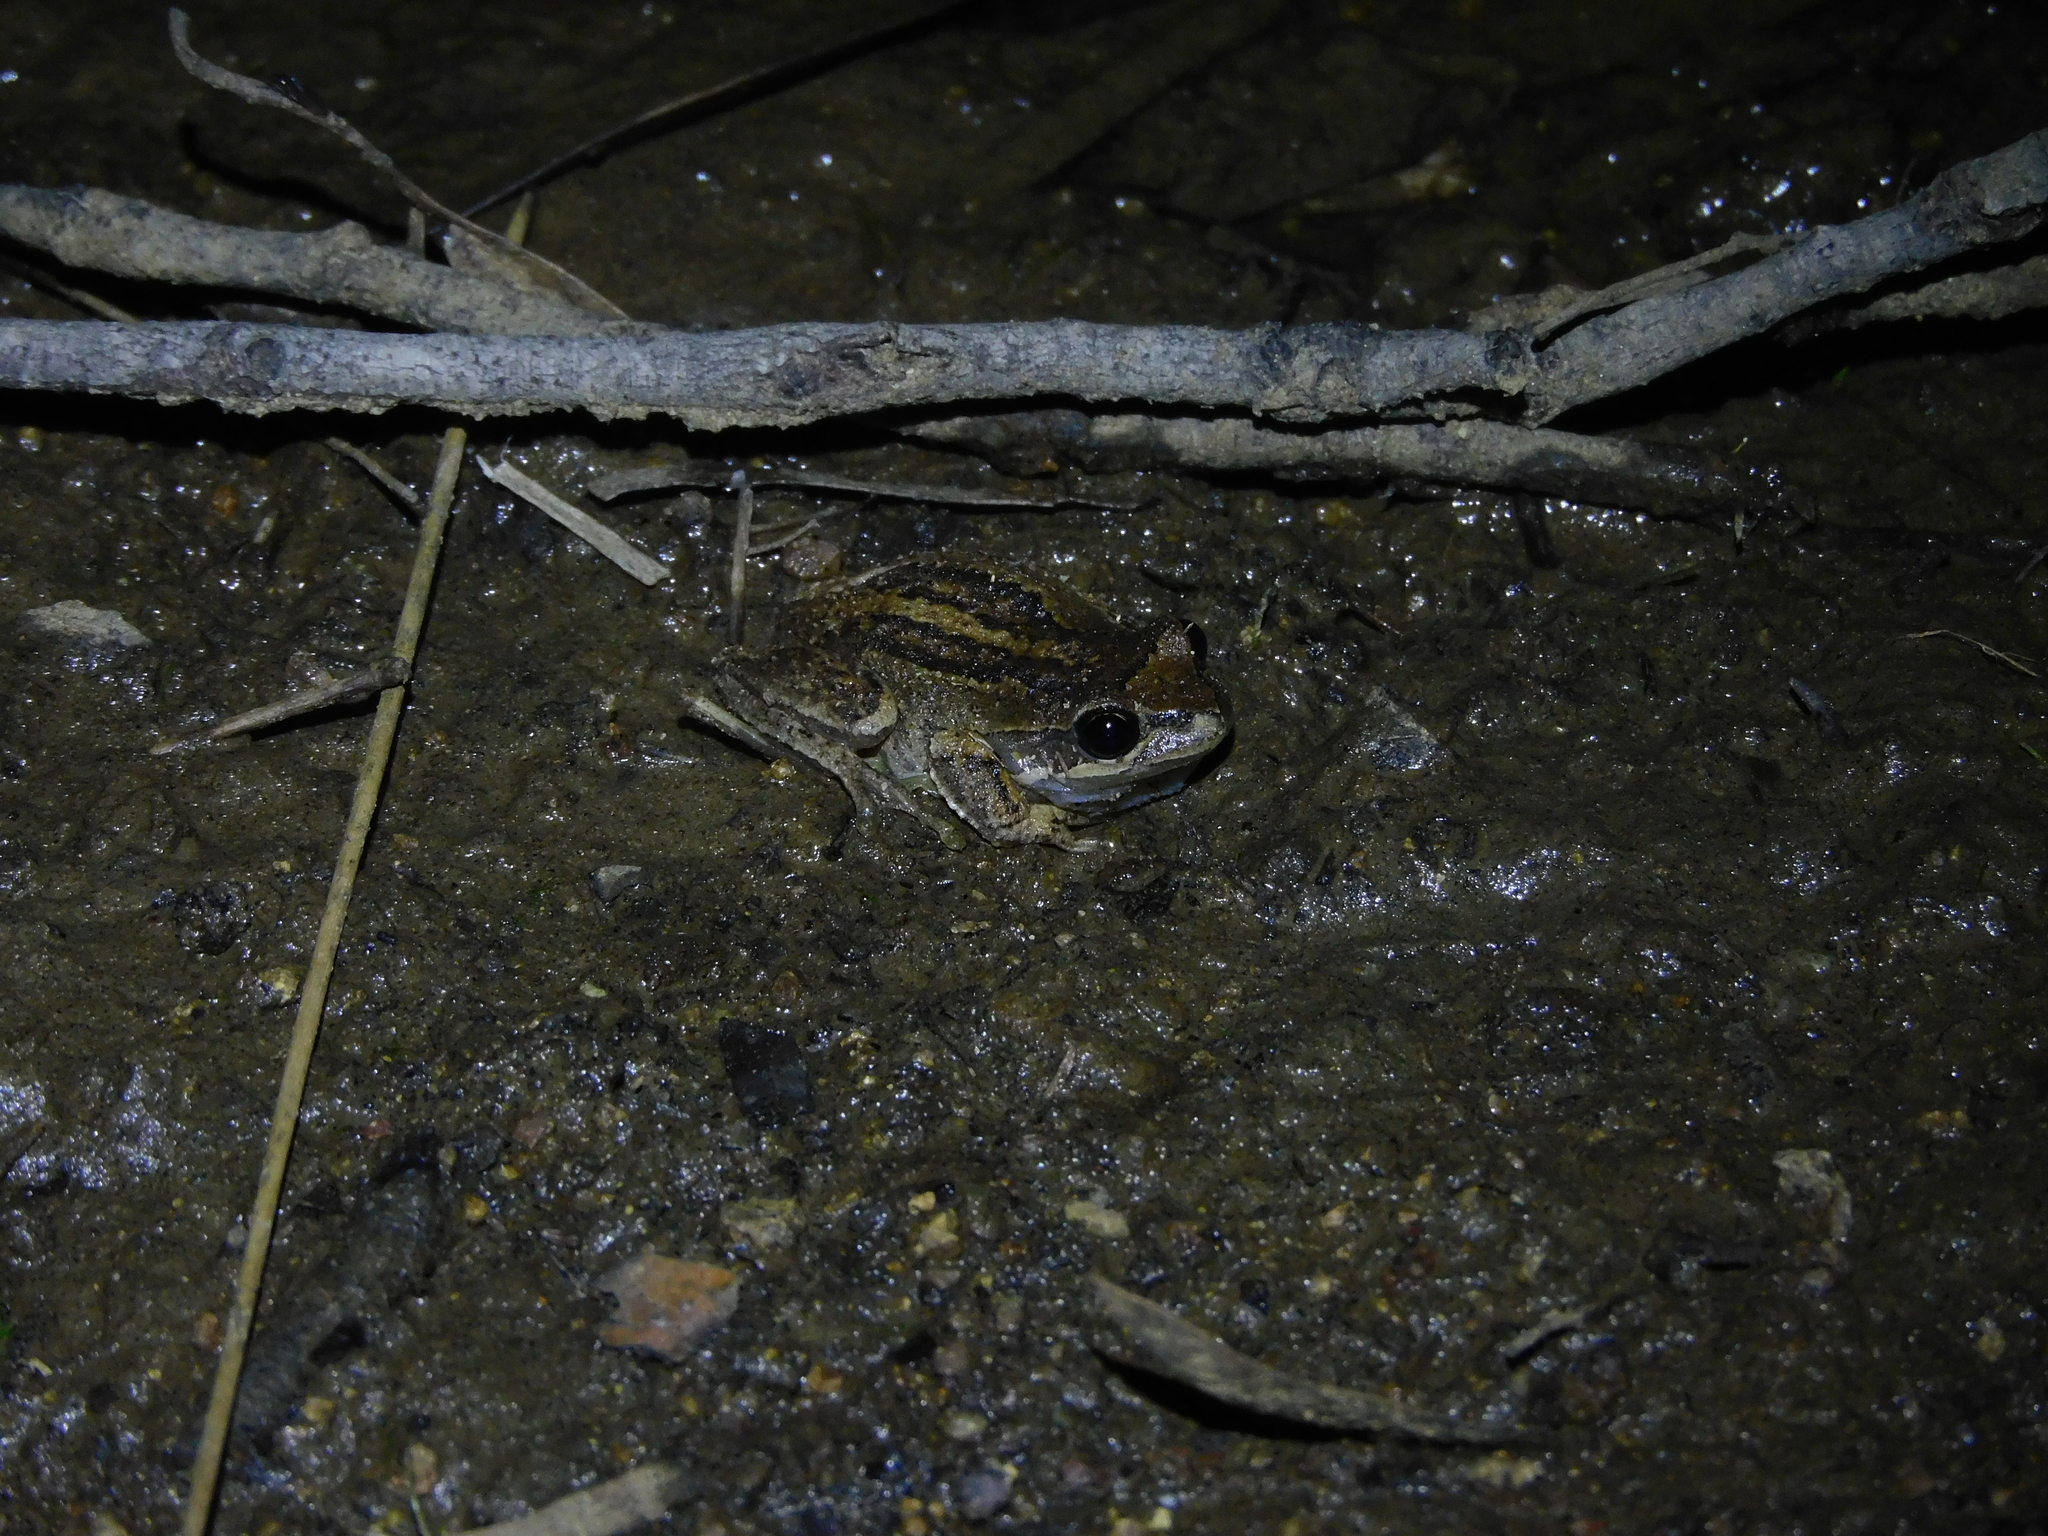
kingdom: Animalia
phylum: Chordata
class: Amphibia
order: Anura
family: Pelodryadidae
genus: Litoria
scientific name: Litoria ewingii
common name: Southern brown tree frog
